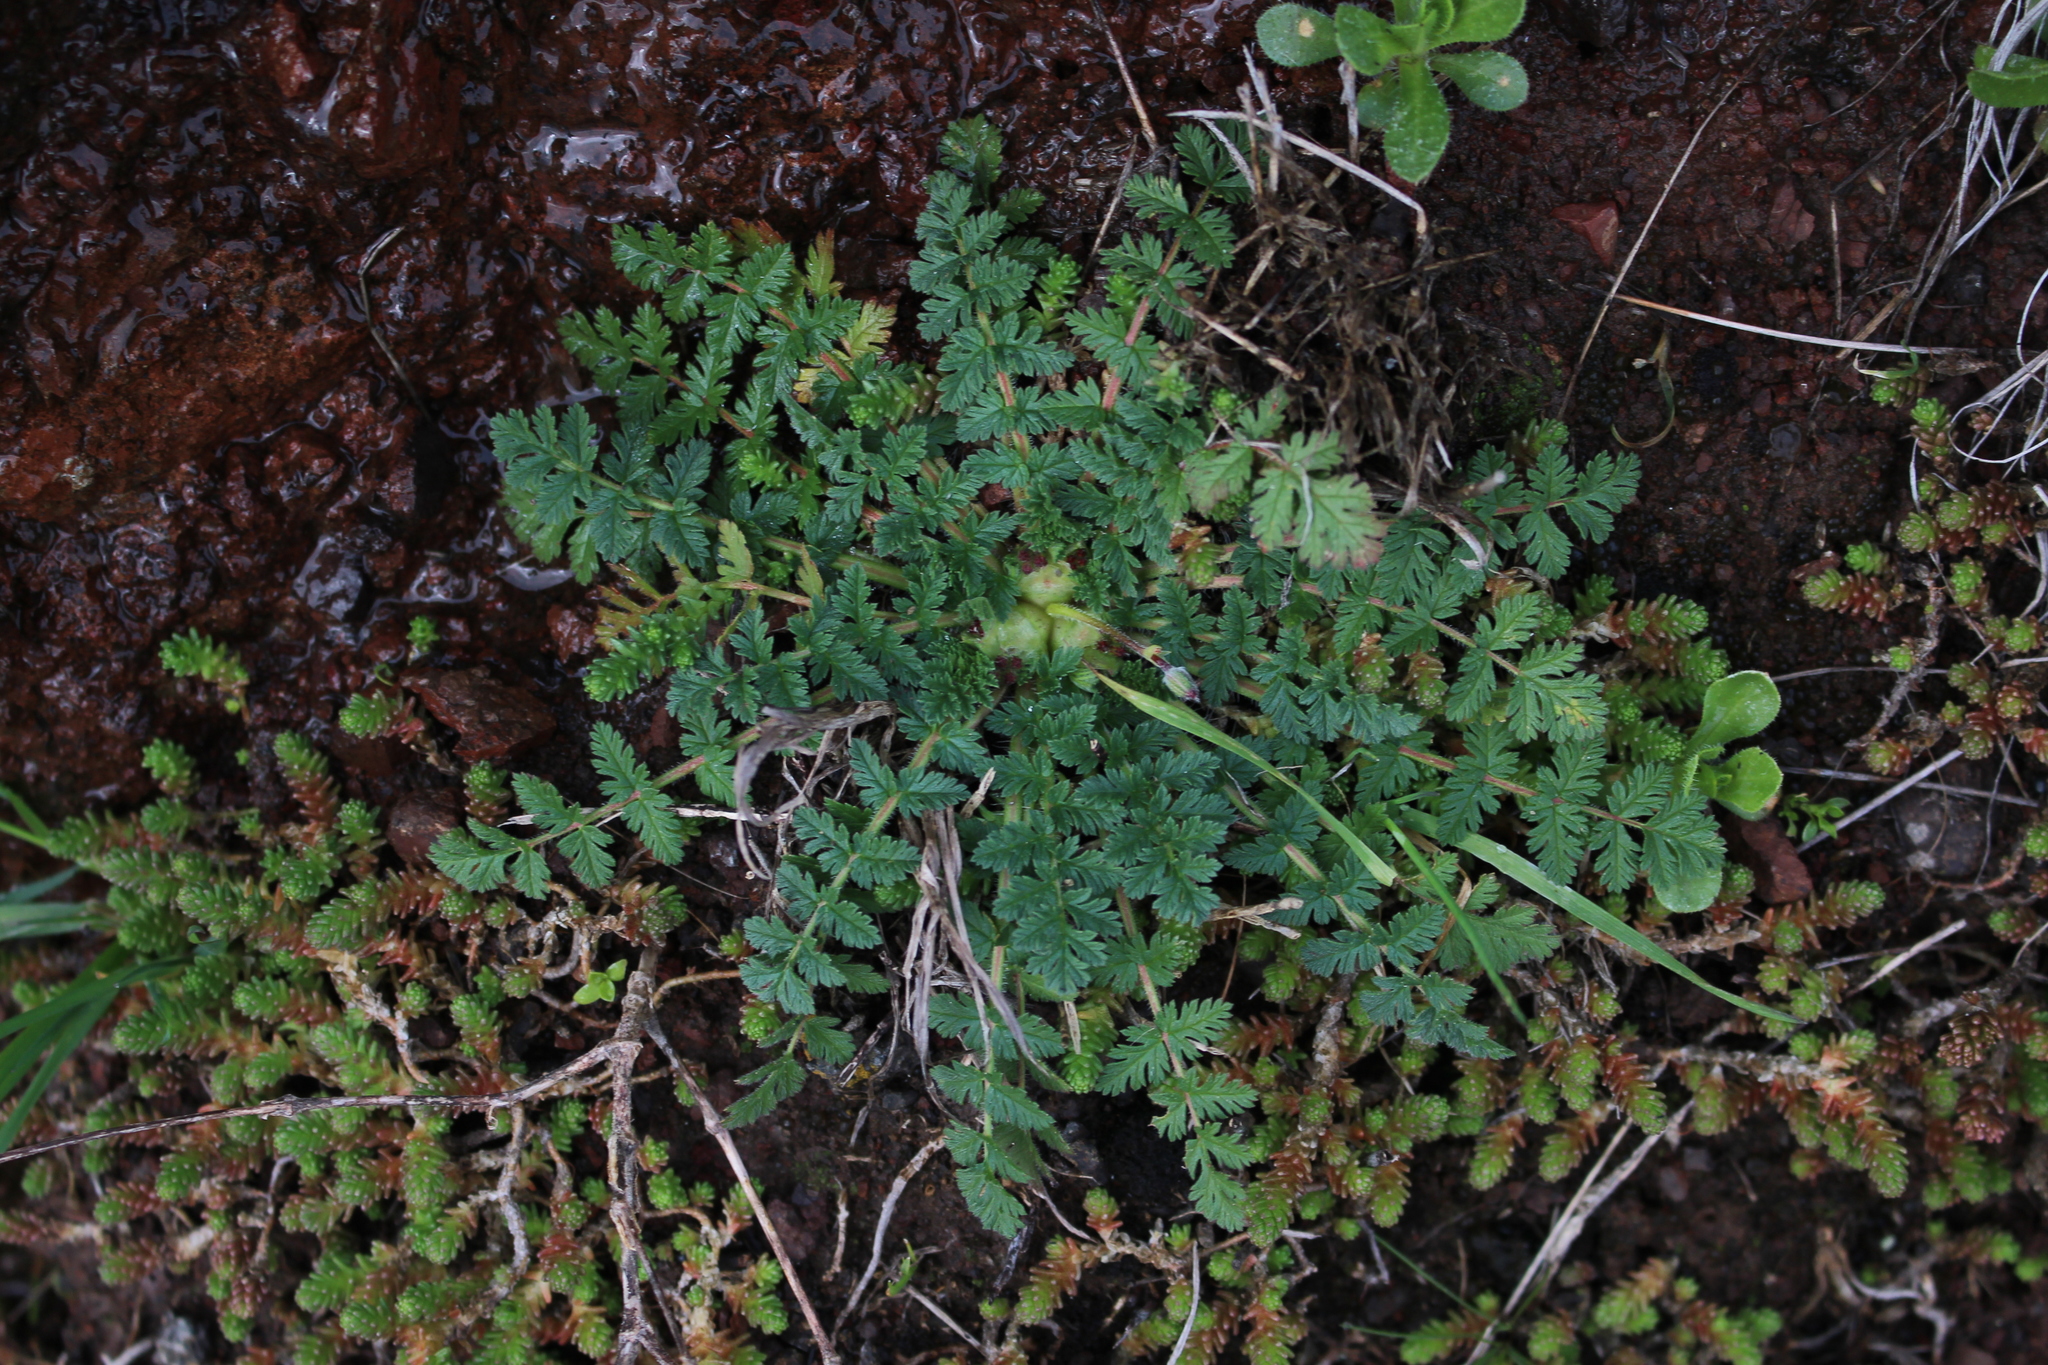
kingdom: Plantae
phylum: Tracheophyta
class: Magnoliopsida
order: Geraniales
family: Geraniaceae
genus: Erodium
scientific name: Erodium cicutarium
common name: Common stork's-bill
